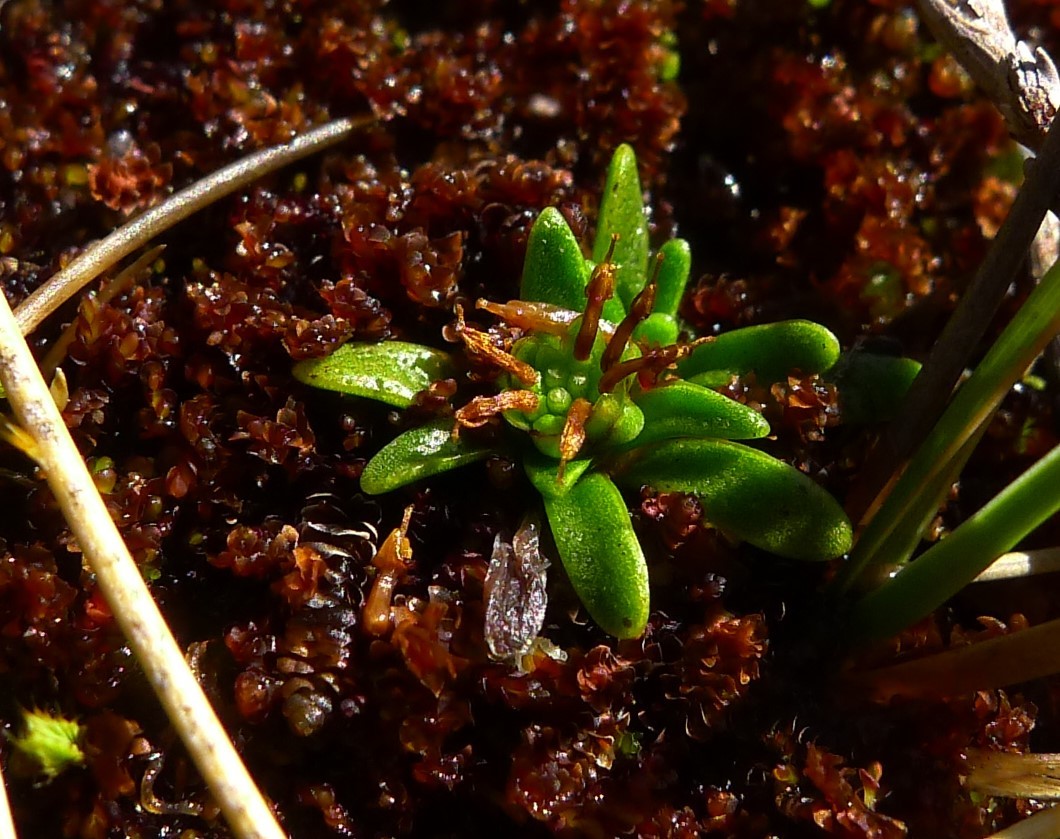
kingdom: Plantae
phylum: Tracheophyta
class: Magnoliopsida
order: Asterales
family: Asteraceae
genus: Abrotanella
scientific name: Abrotanella caespitosa
